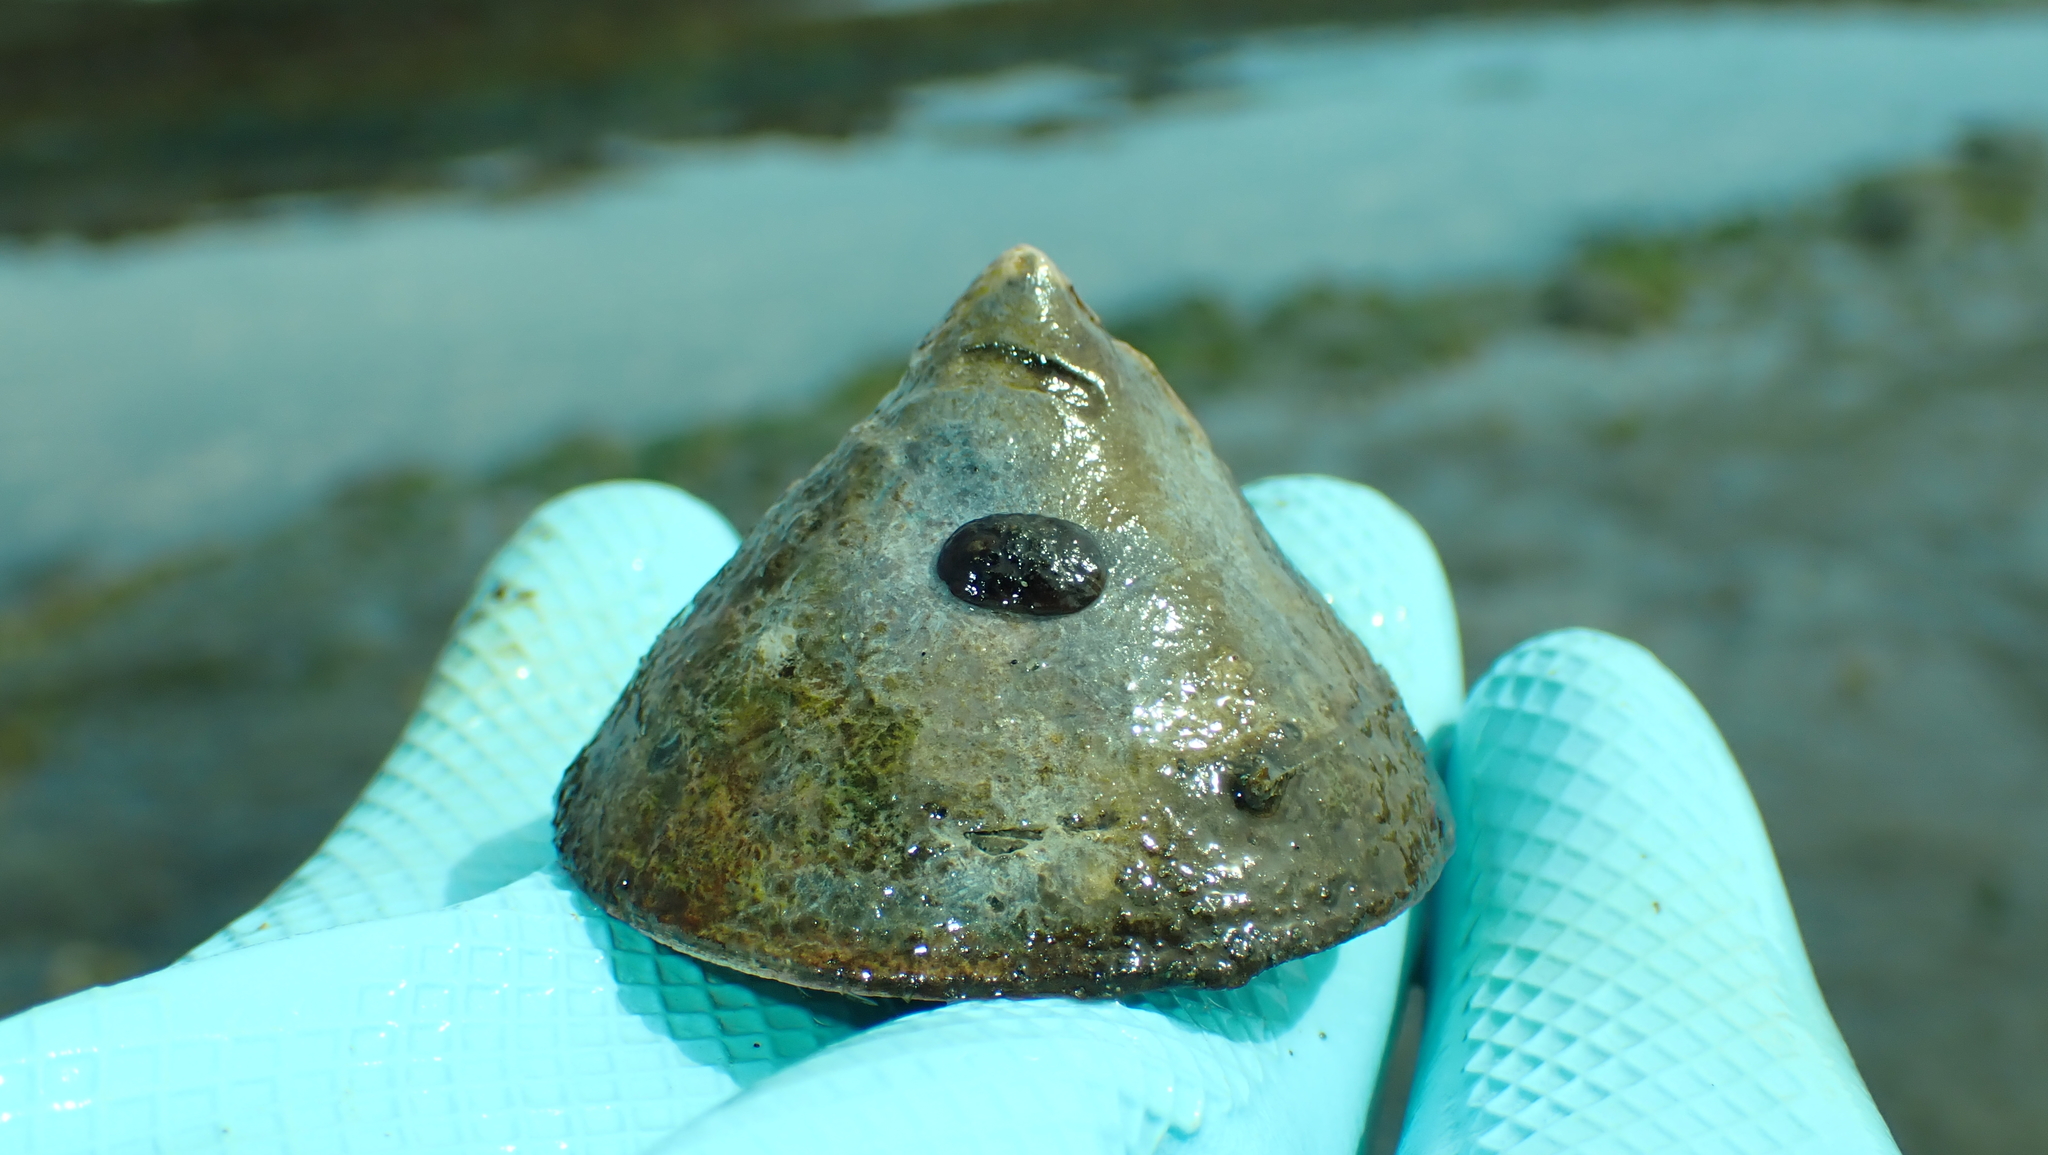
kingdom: Animalia
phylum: Mollusca
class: Gastropoda
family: Acmaeidae
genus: Acmaea
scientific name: Acmaea mitra
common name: Pacific white cap limpet
